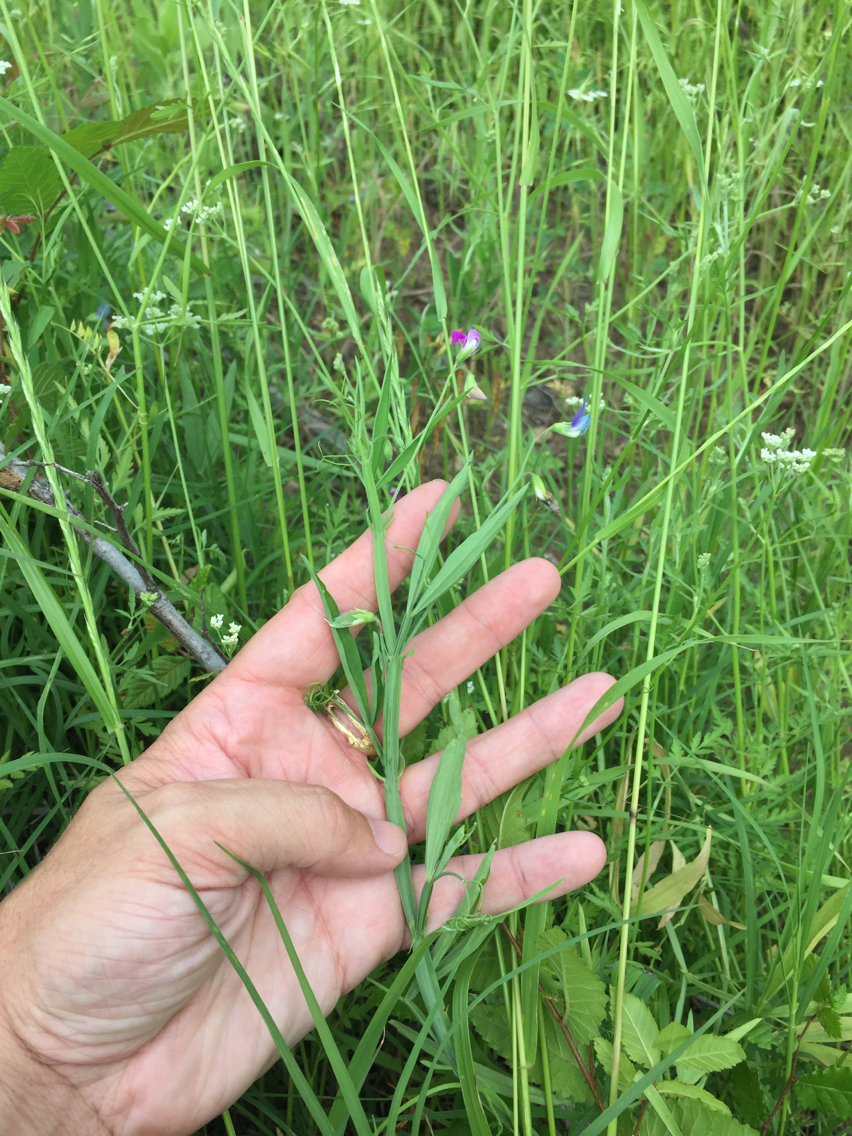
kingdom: Plantae
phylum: Tracheophyta
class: Magnoliopsida
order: Fabales
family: Fabaceae
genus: Lathyrus
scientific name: Lathyrus hirsutus
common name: Hairy vetchling
